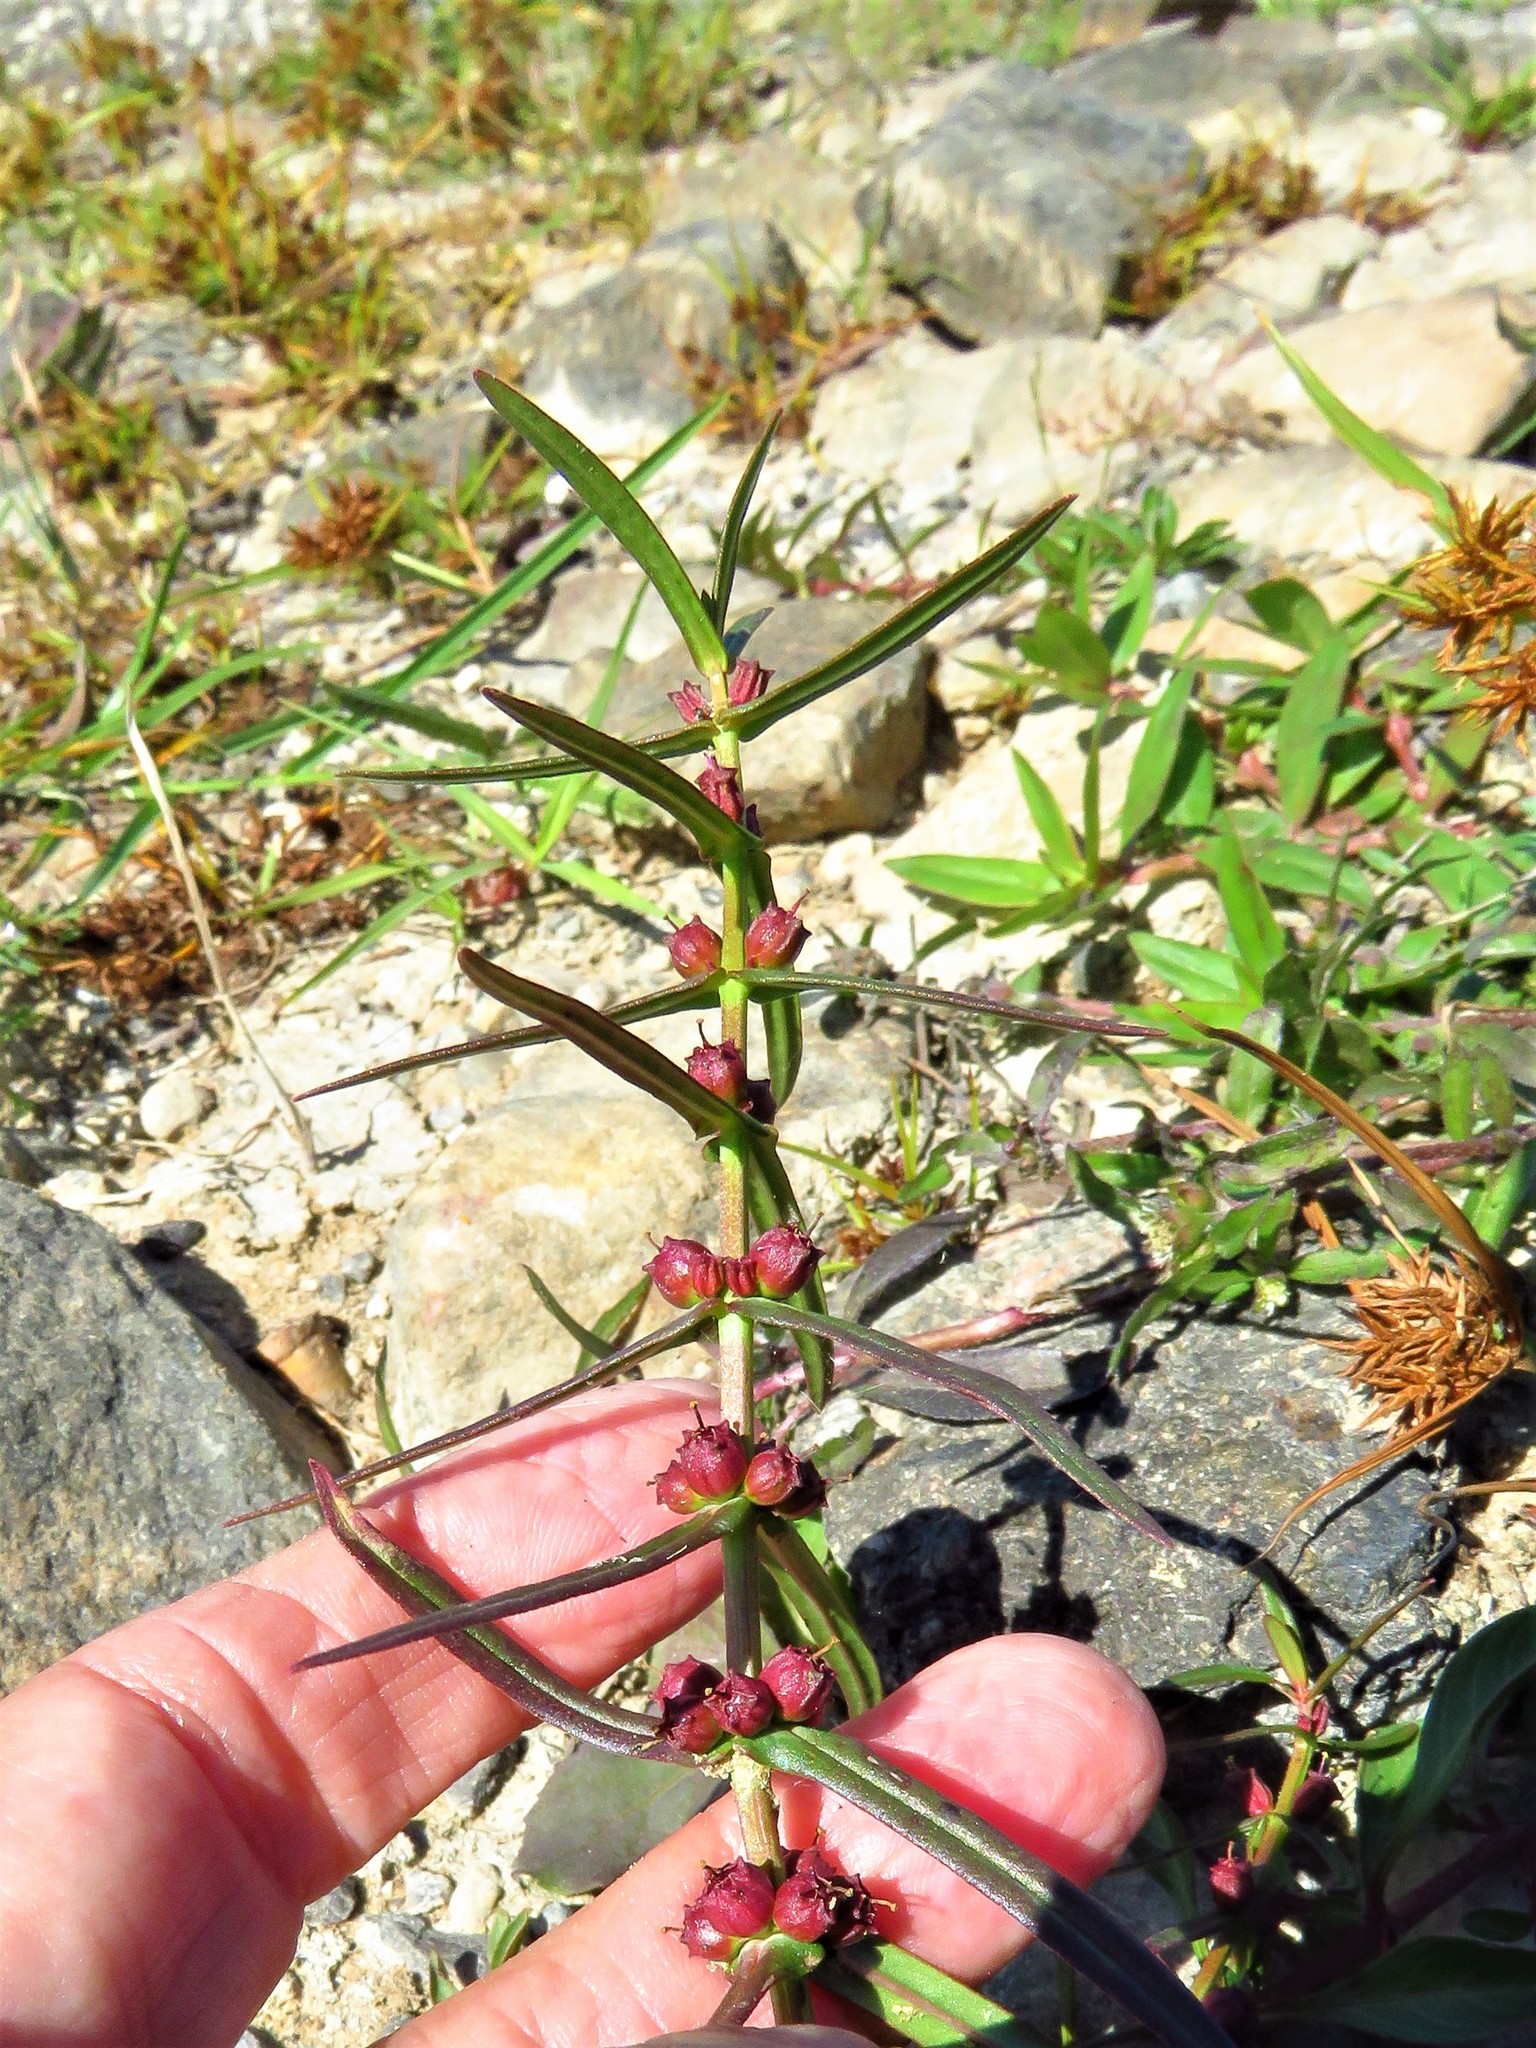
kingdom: Plantae
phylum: Tracheophyta
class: Magnoliopsida
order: Myrtales
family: Lythraceae
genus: Ammannia
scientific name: Ammannia coccinea
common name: Valley redstem
